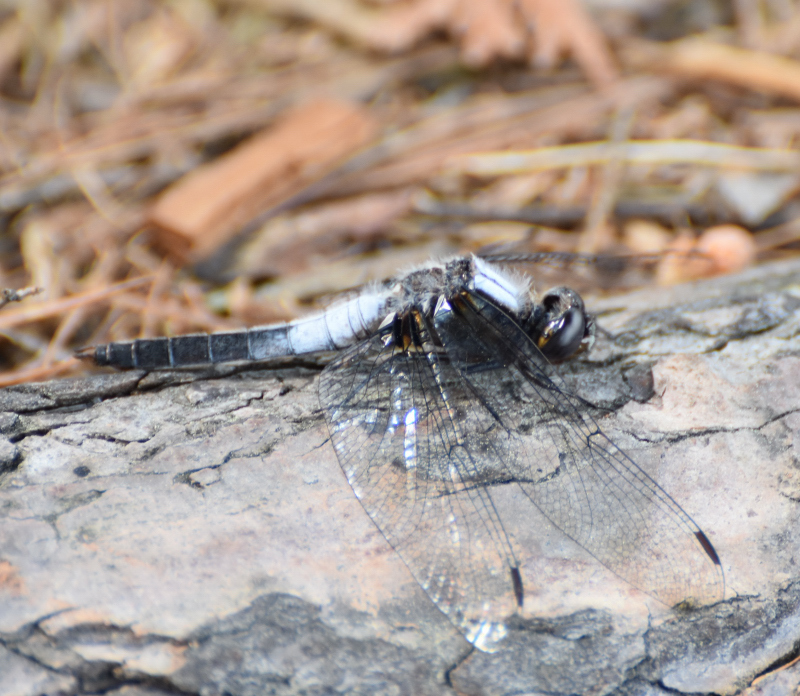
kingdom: Animalia
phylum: Arthropoda
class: Insecta
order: Odonata
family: Libellulidae
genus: Ladona
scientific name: Ladona julia
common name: Chalk-fronted corporal
